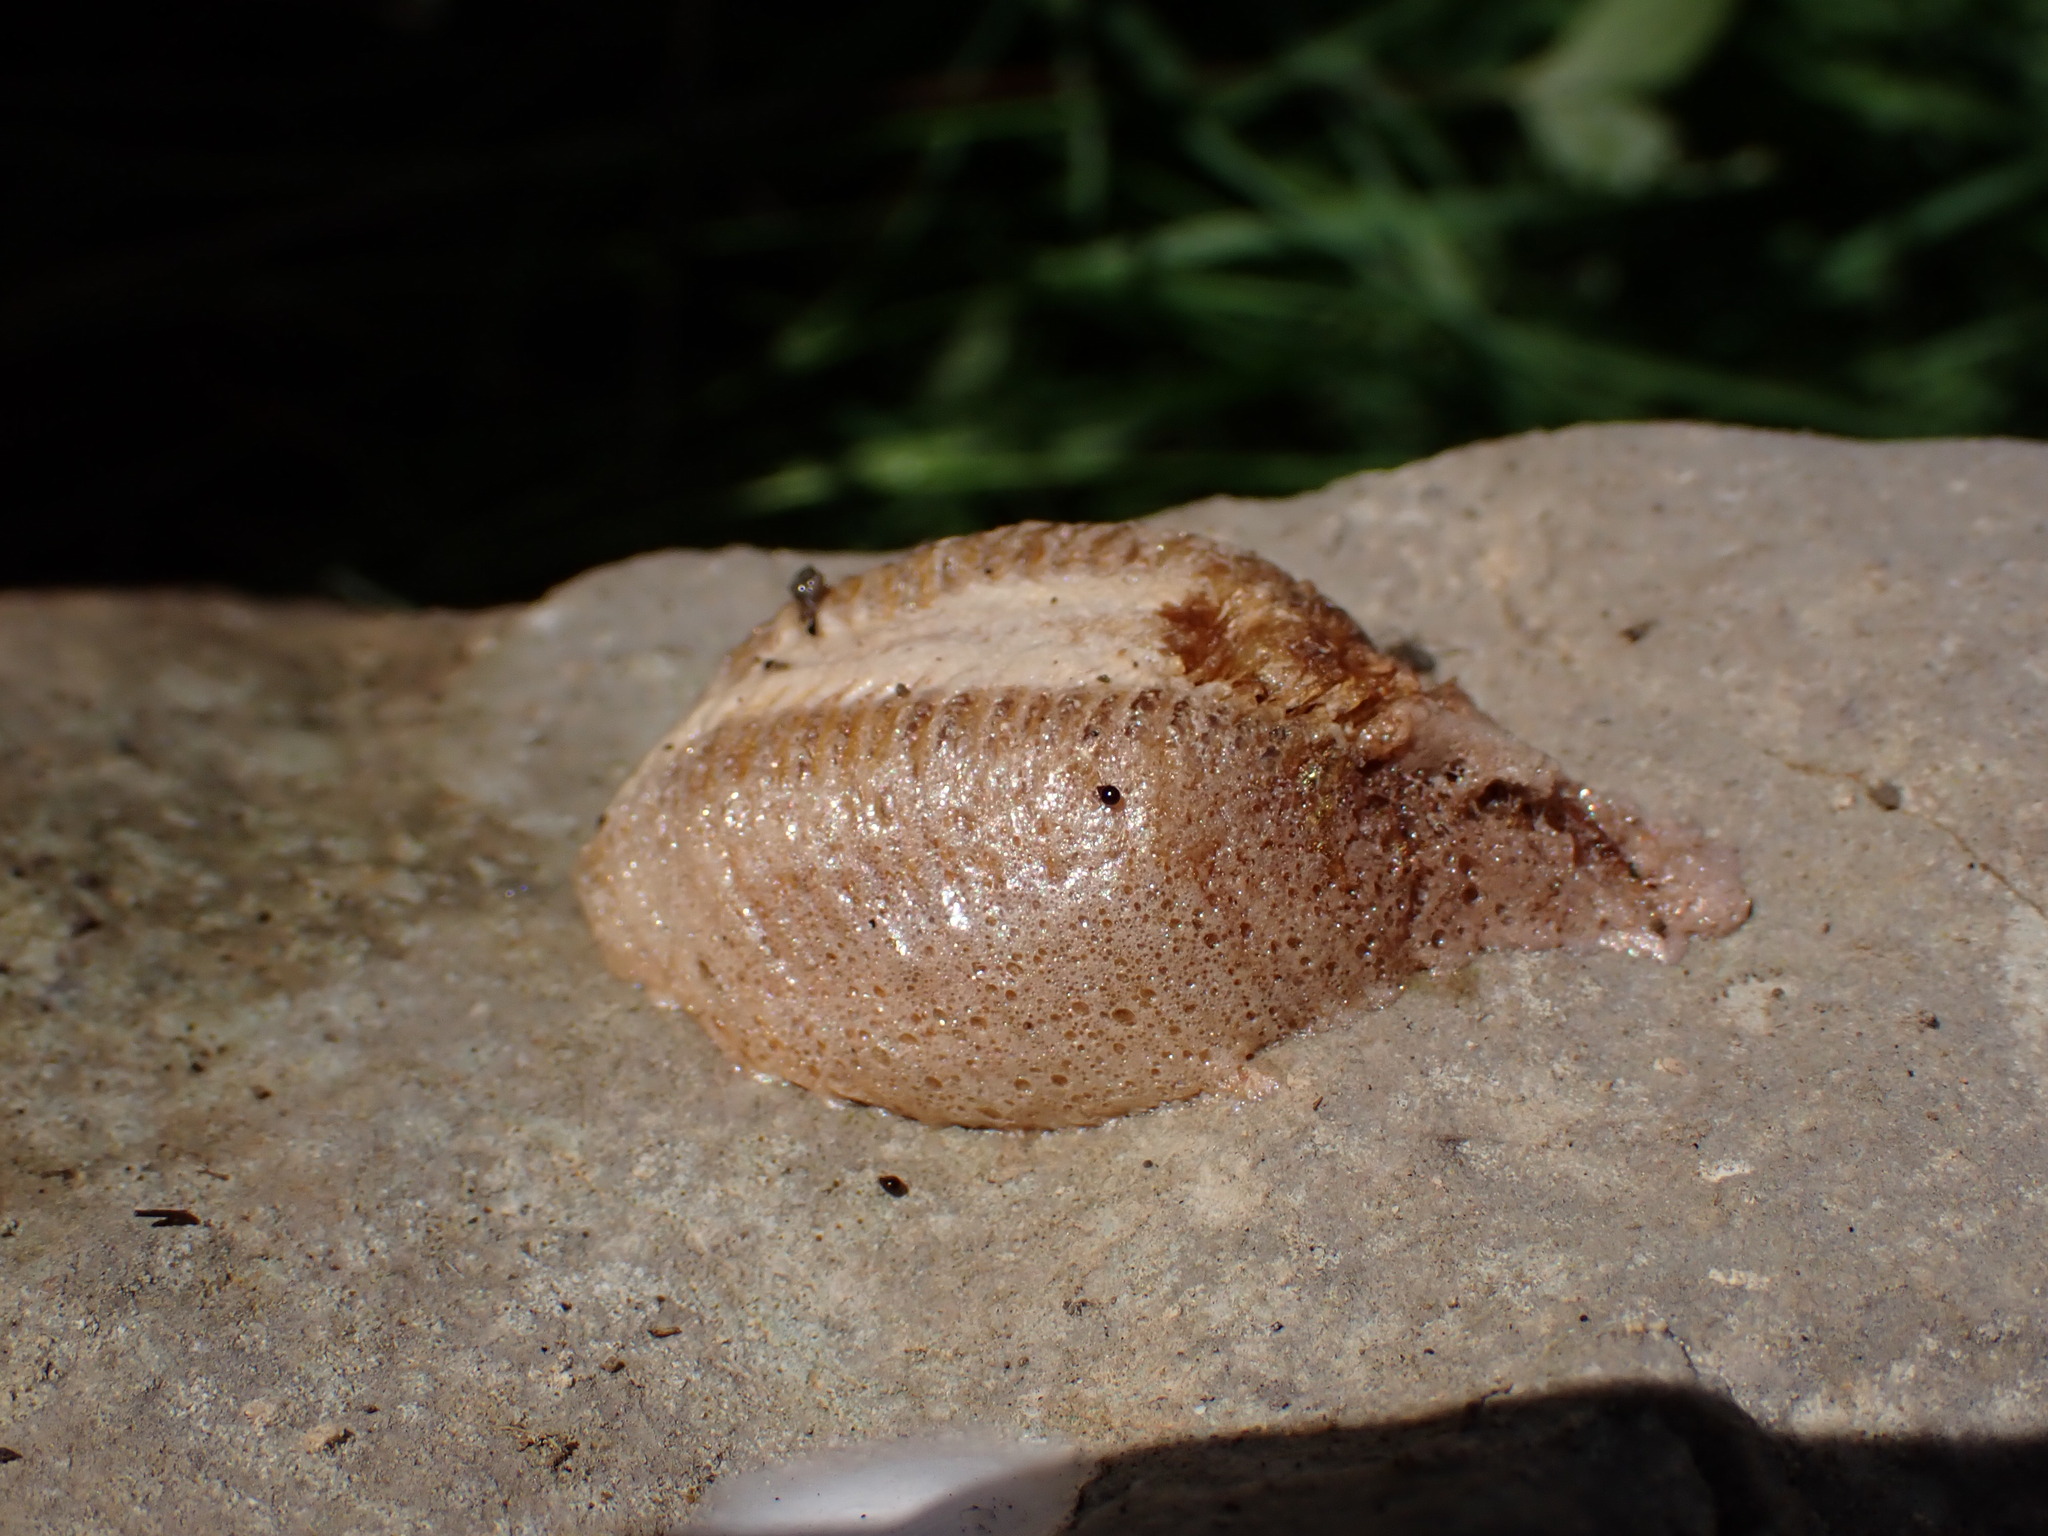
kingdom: Animalia
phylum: Arthropoda
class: Insecta
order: Mantodea
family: Mantidae
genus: Mantis
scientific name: Mantis religiosa
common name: Praying mantis
